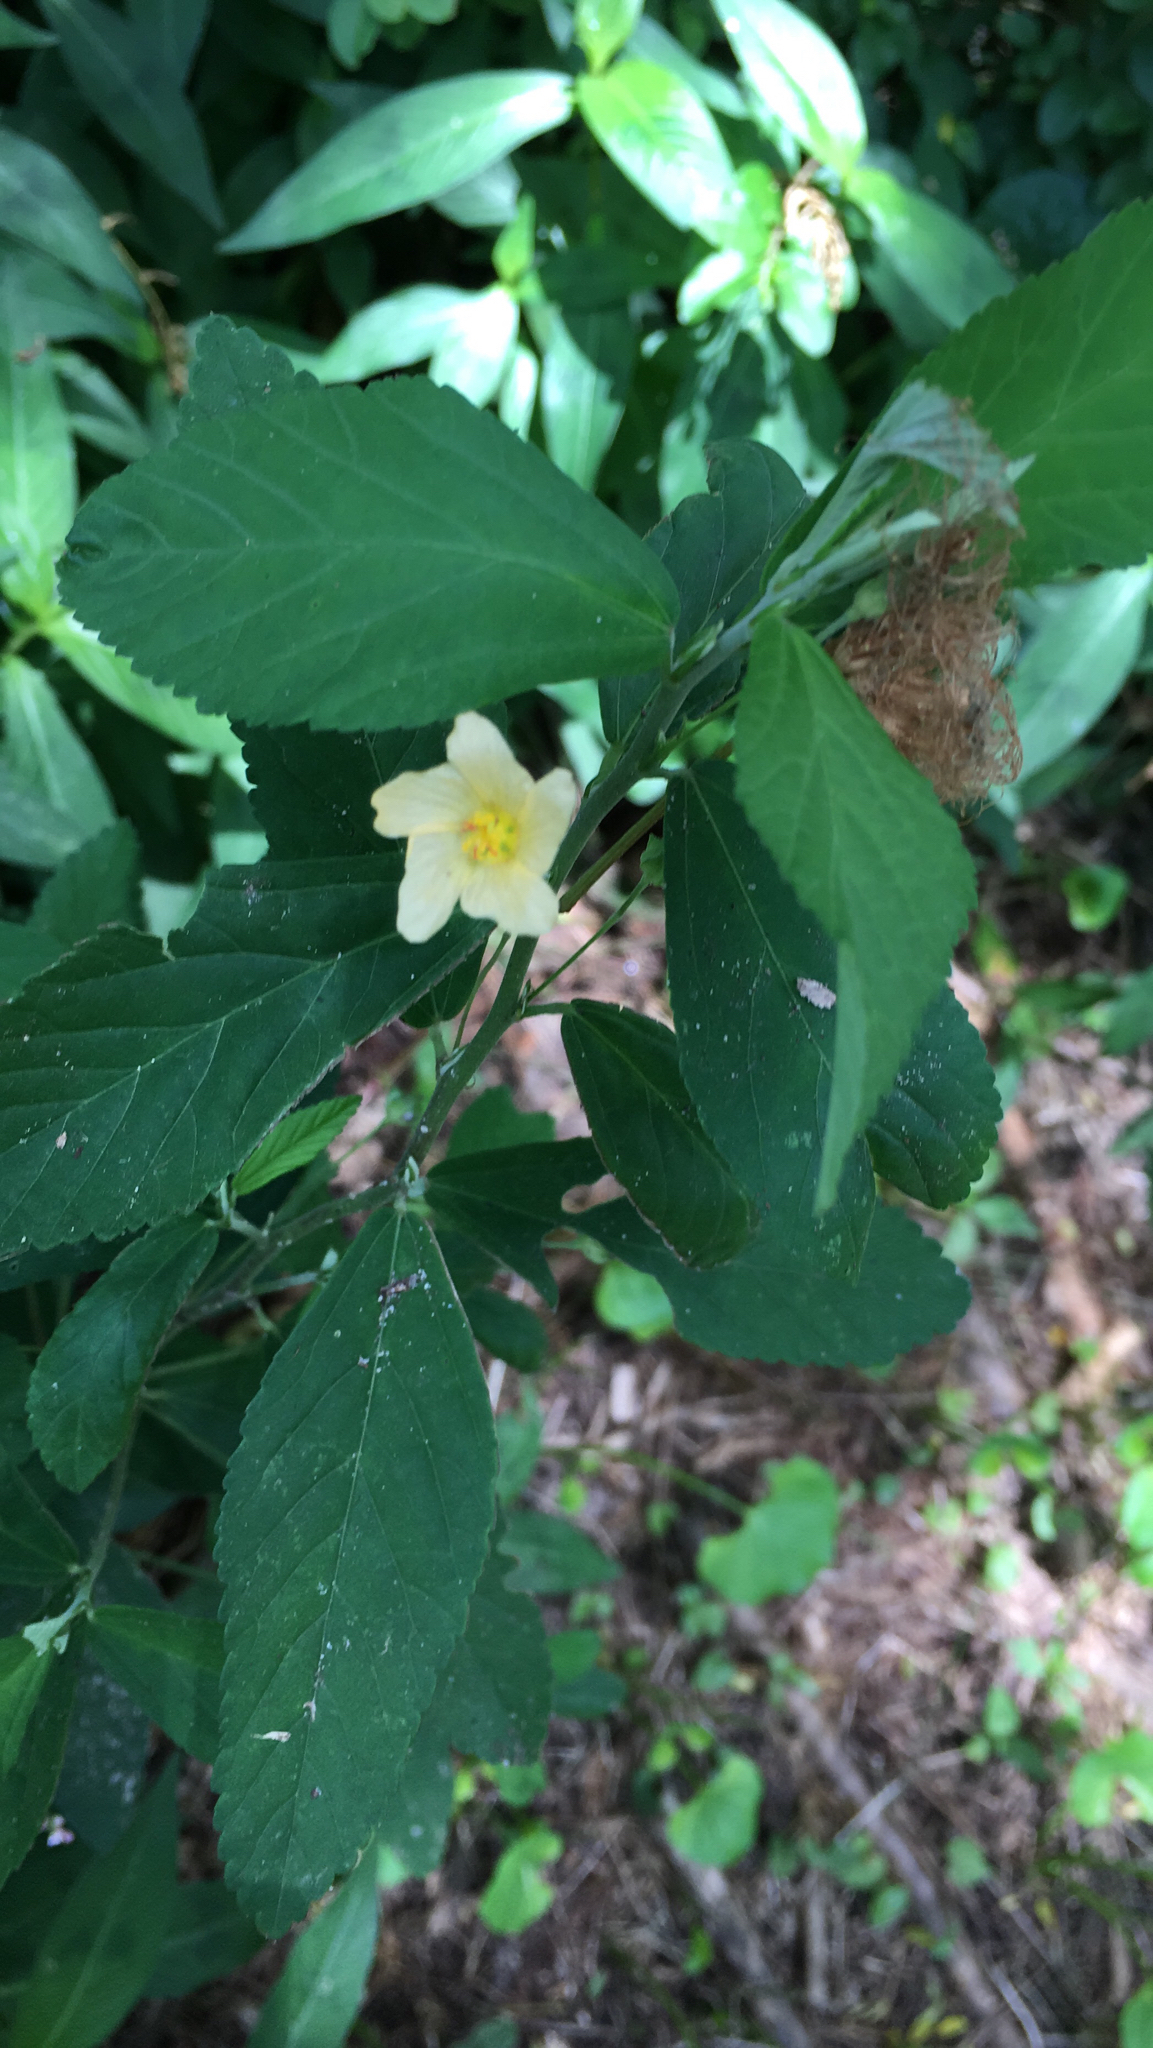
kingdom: Plantae
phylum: Tracheophyta
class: Magnoliopsida
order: Malvales
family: Malvaceae
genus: Sida
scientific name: Sida rhombifolia
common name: Queensland-hemp
